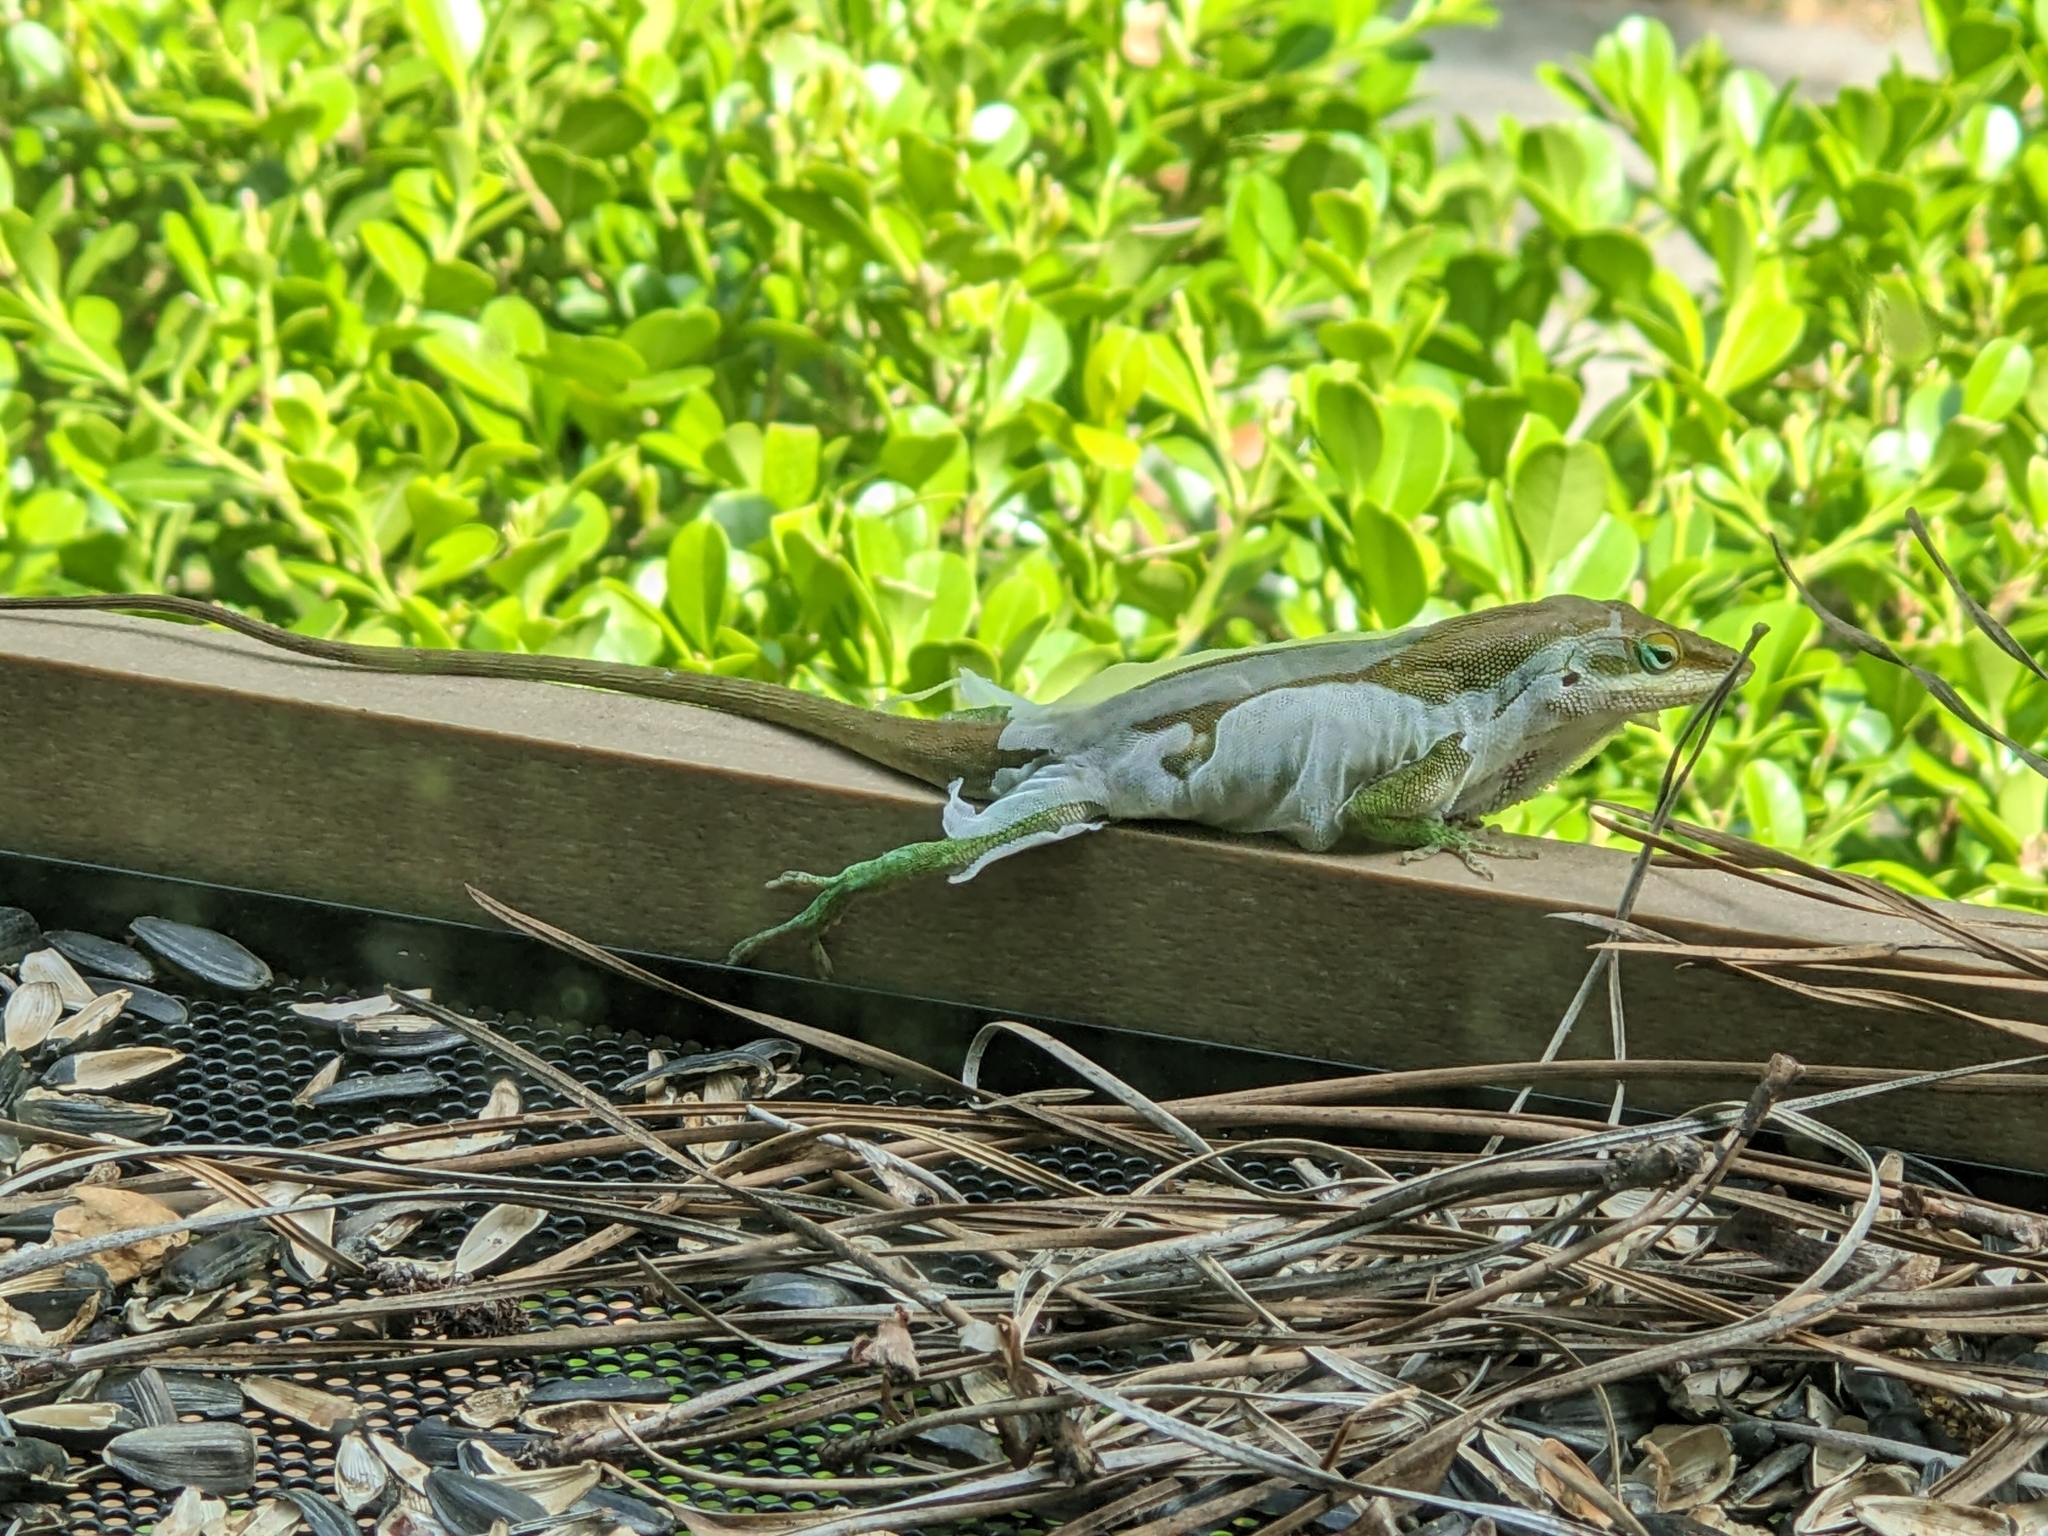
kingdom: Animalia
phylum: Chordata
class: Squamata
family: Dactyloidae
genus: Anolis
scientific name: Anolis carolinensis
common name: Green anole
